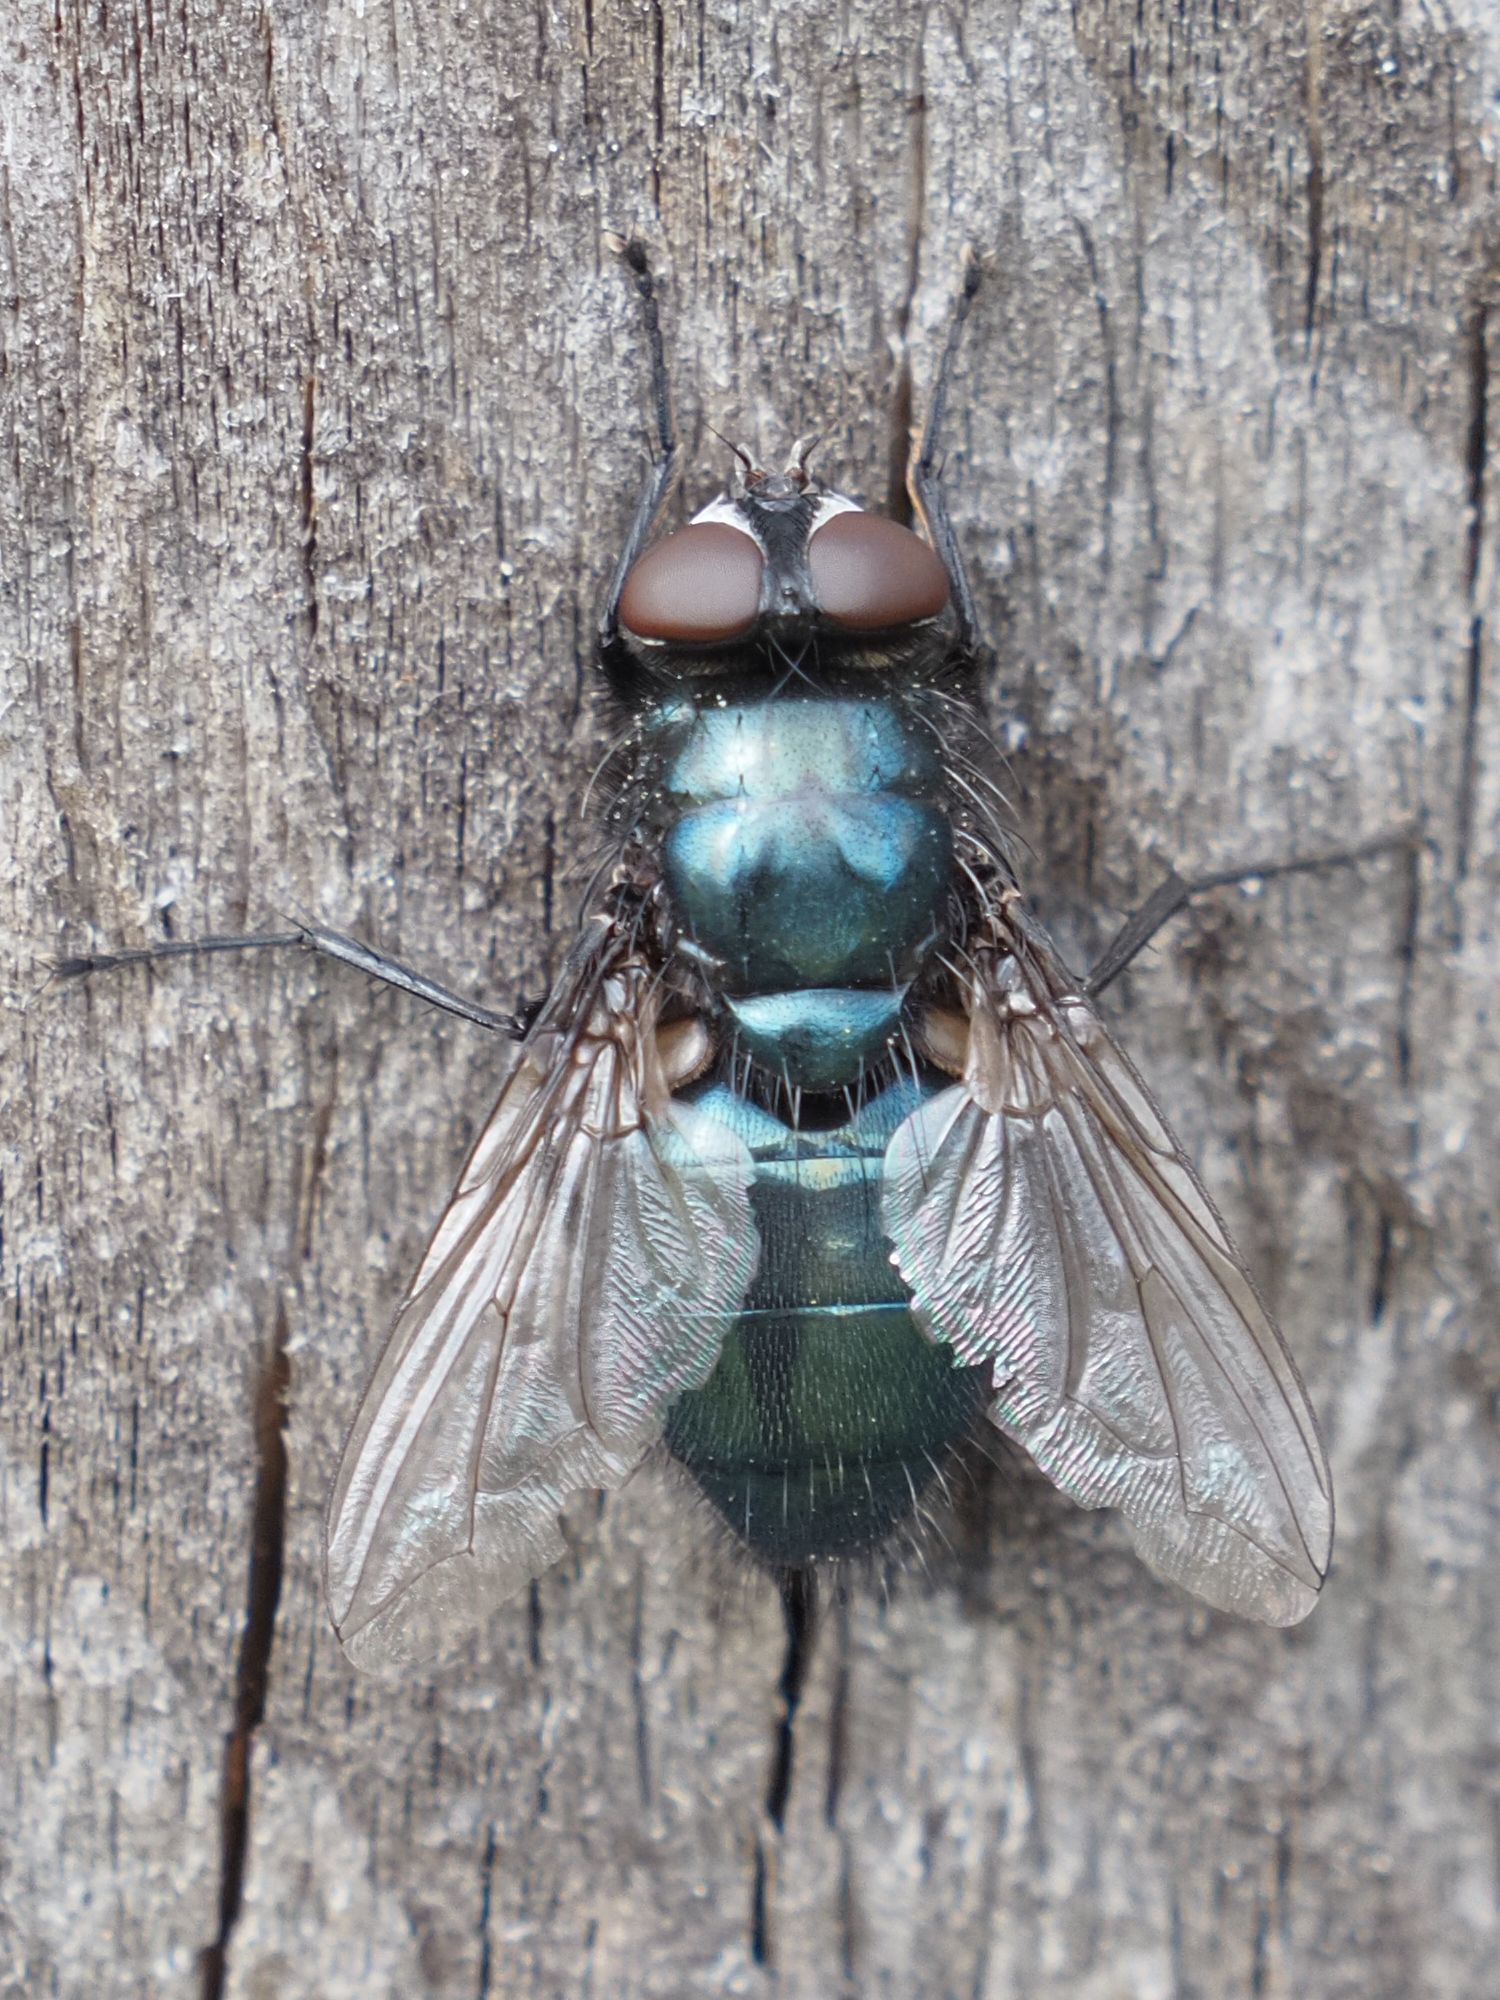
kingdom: Animalia
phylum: Arthropoda
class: Insecta
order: Diptera
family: Calliphoridae
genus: Protophormia
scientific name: Protophormia terraenovae
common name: Blackbottle
